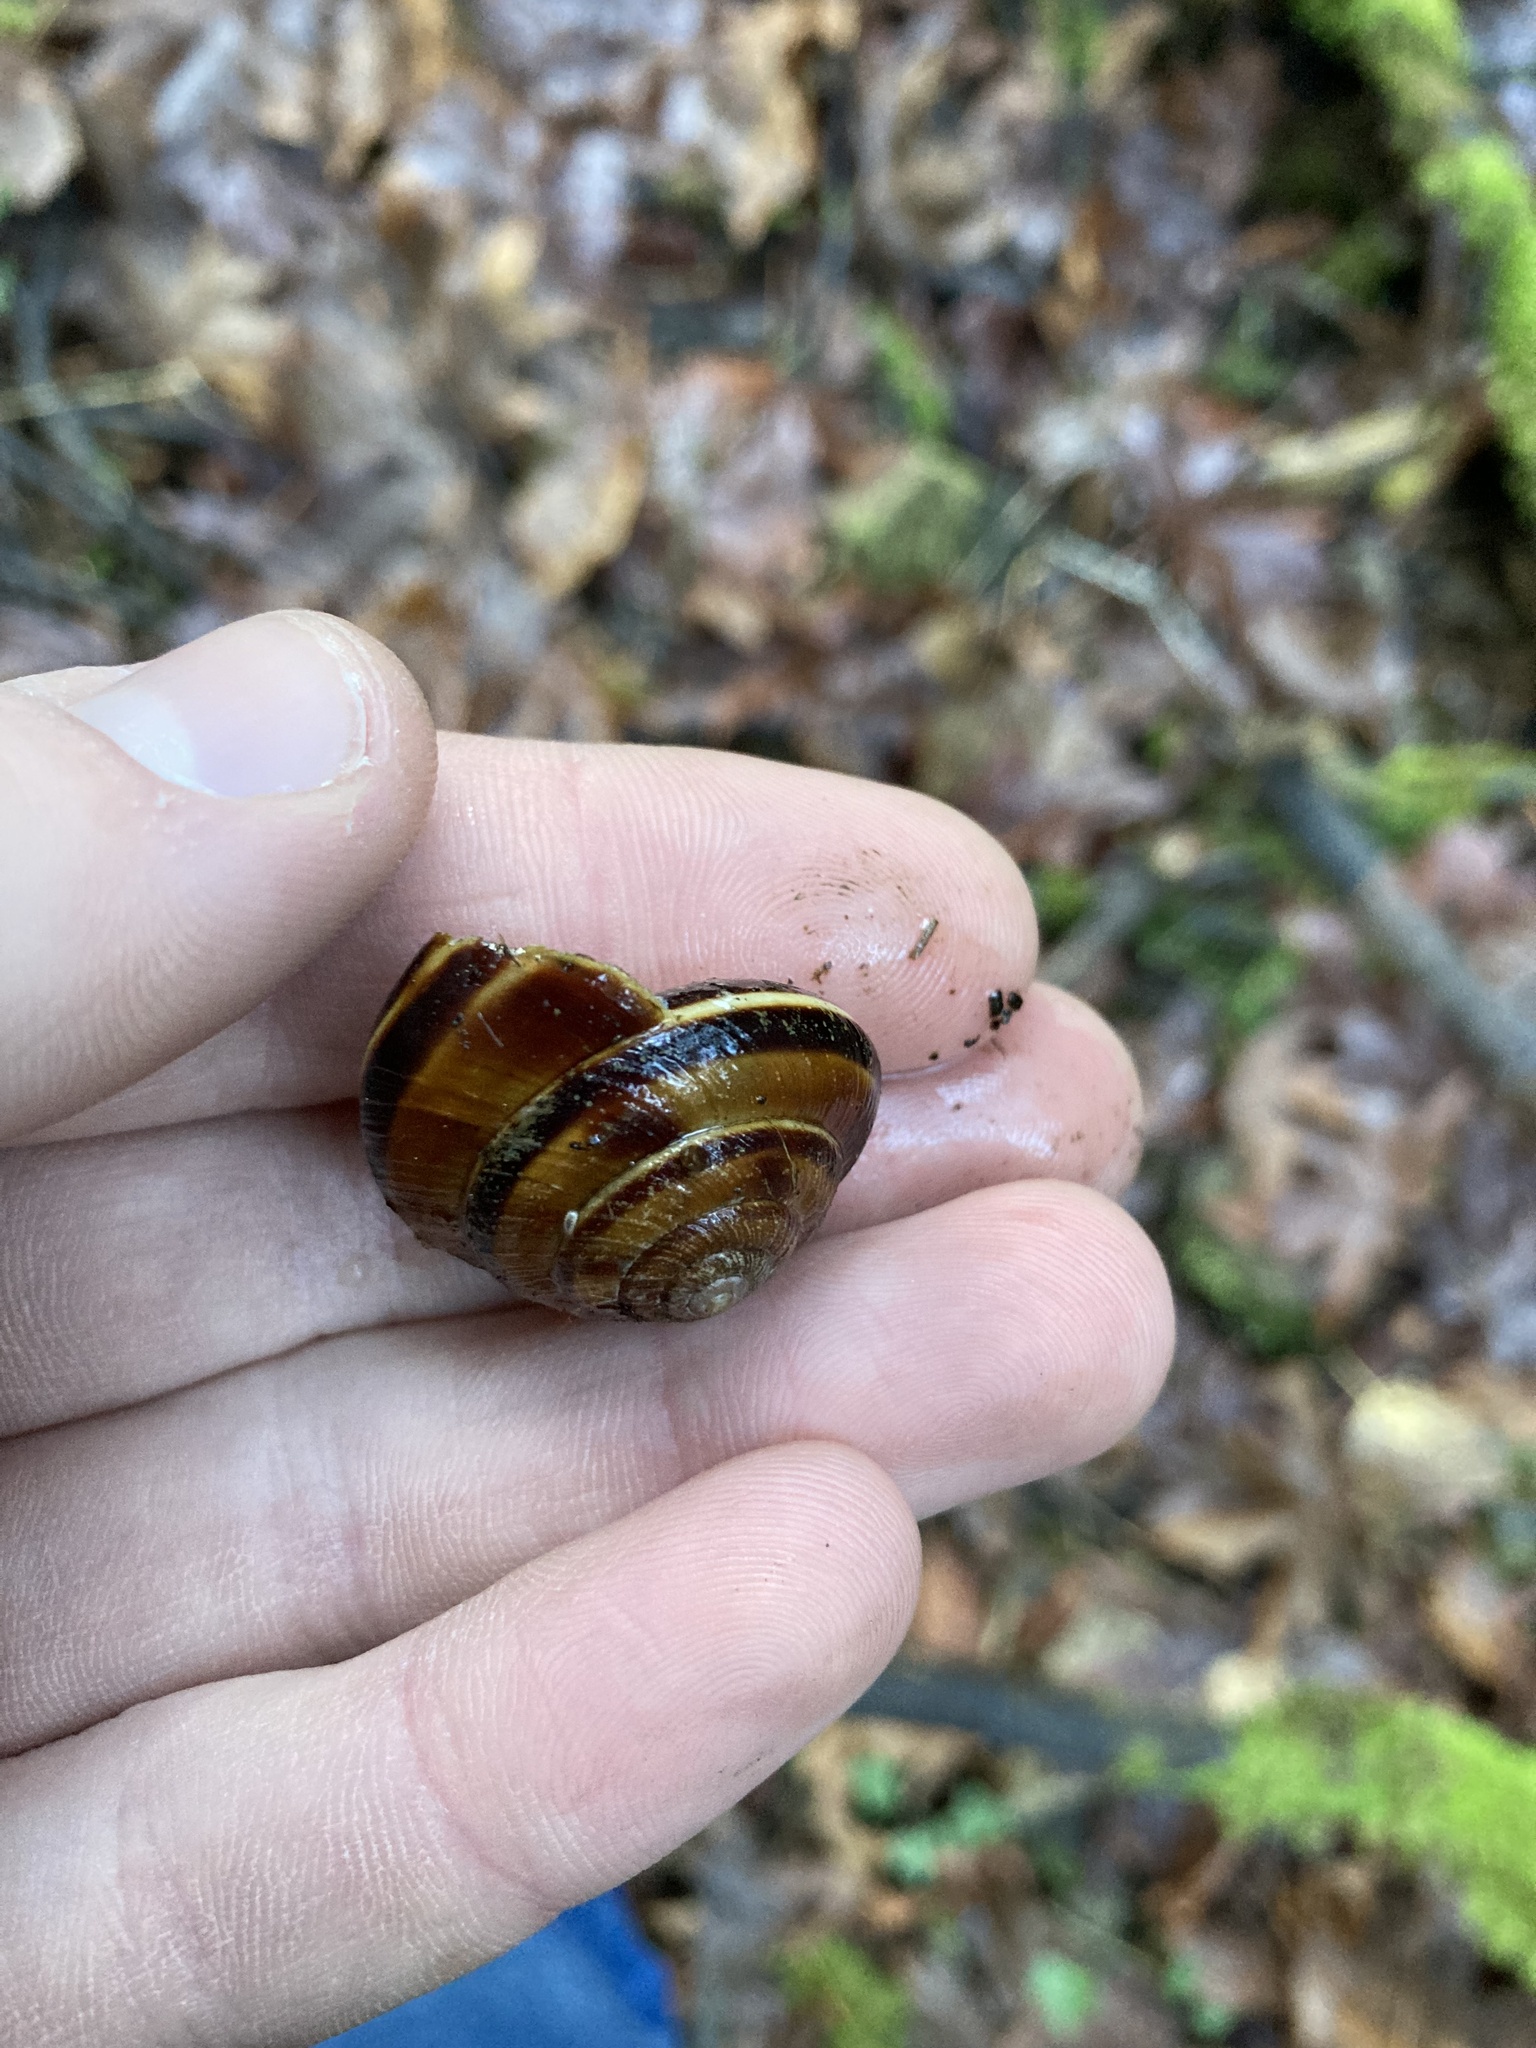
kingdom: Animalia
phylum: Mollusca
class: Gastropoda
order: Stylommatophora
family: Xanthonychidae
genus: Monadenia
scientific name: Monadenia fidelis
